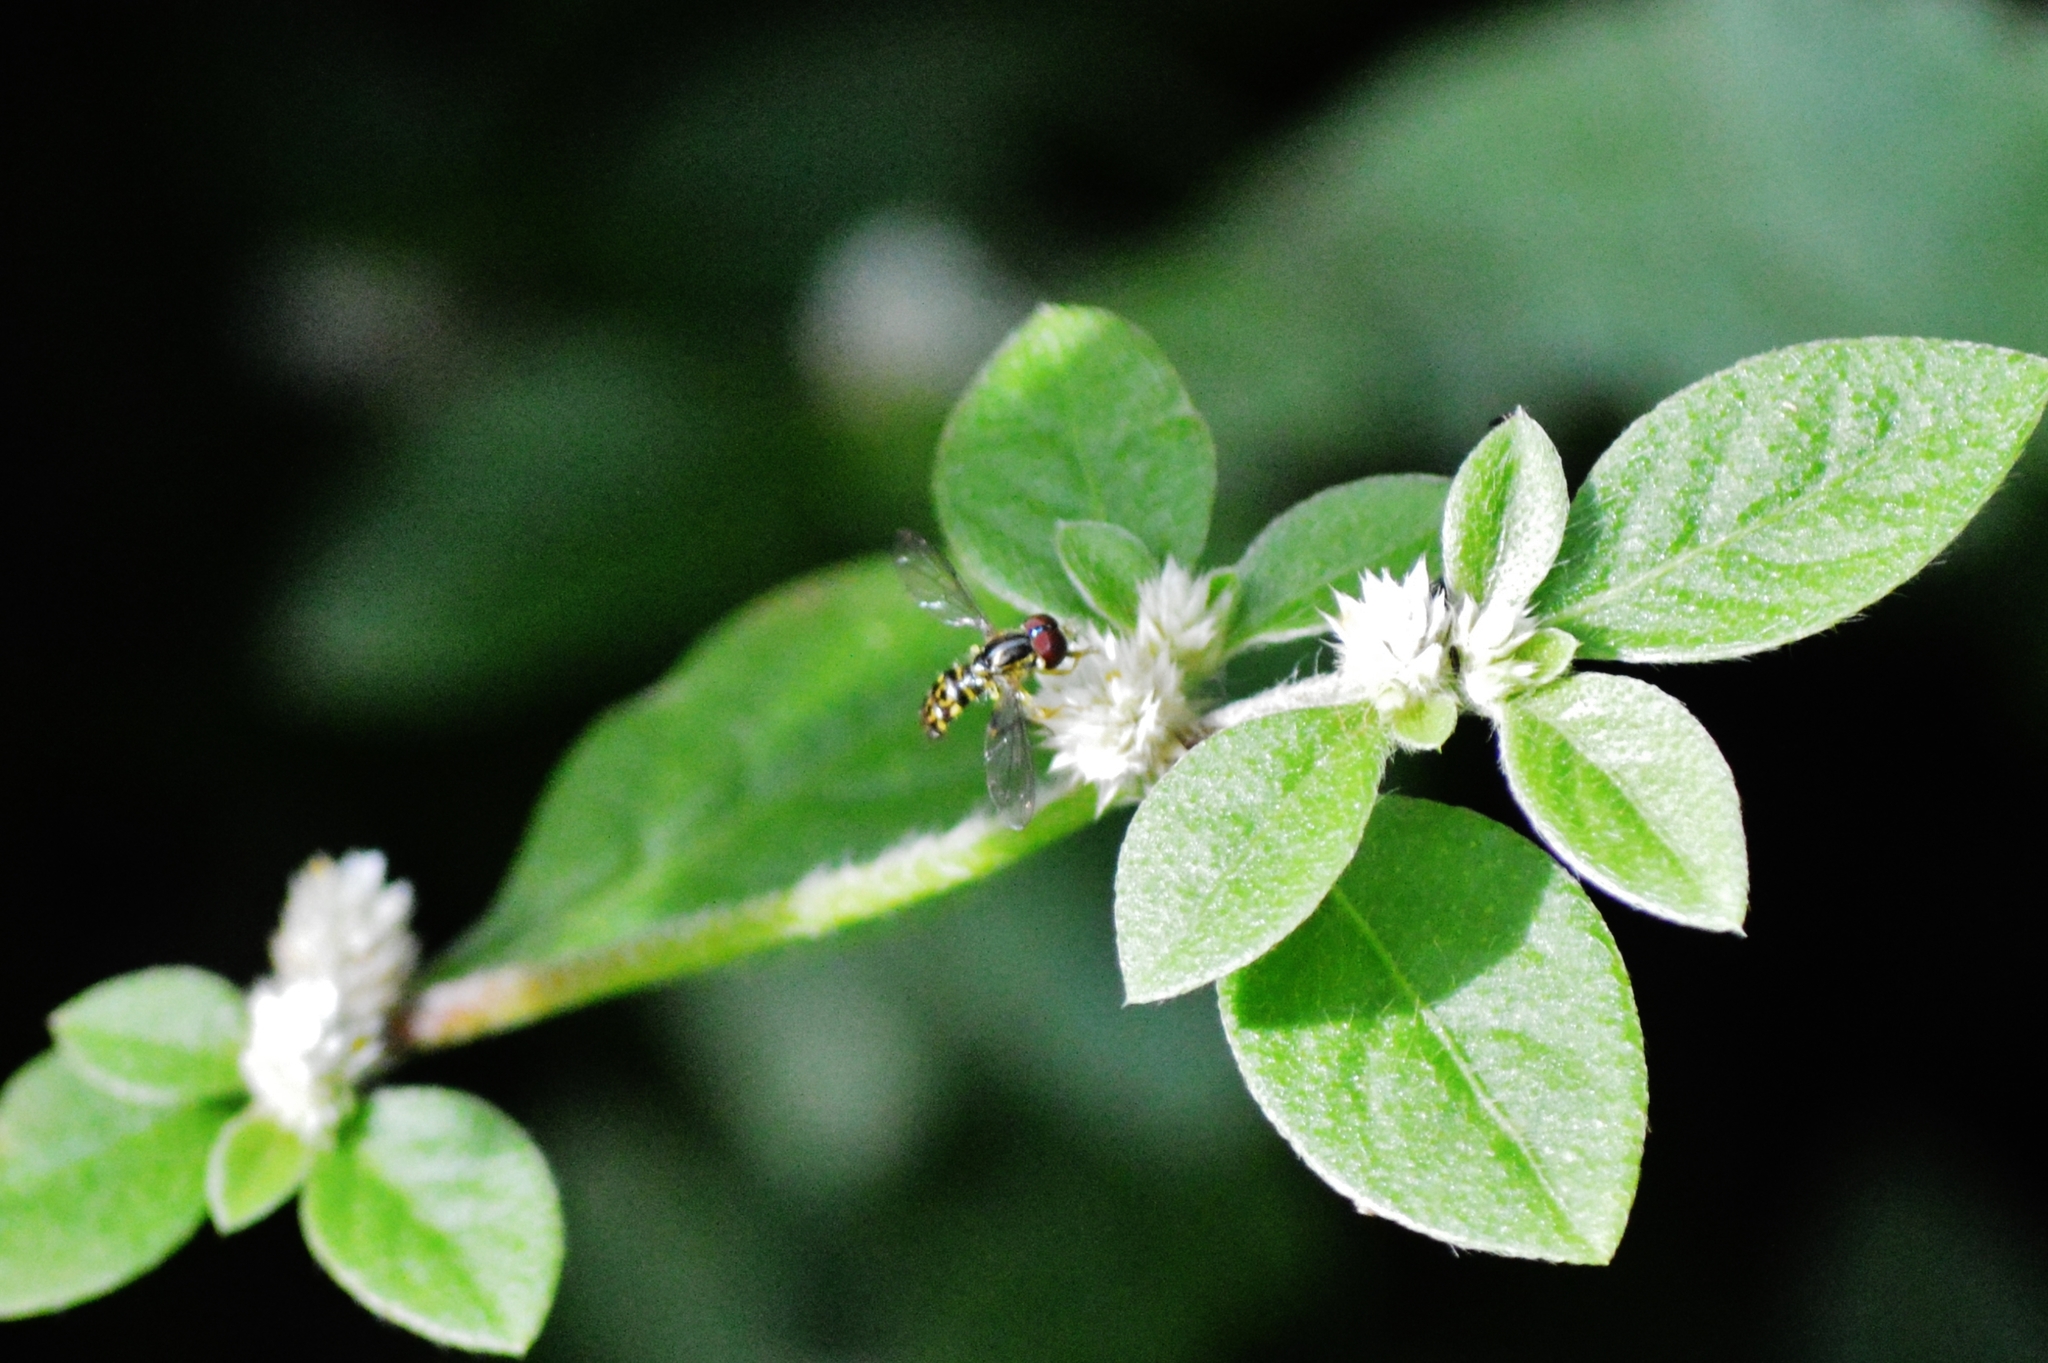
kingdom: Animalia
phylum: Arthropoda
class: Insecta
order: Diptera
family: Syrphidae
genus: Toxomerus
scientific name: Toxomerus virgulatus
